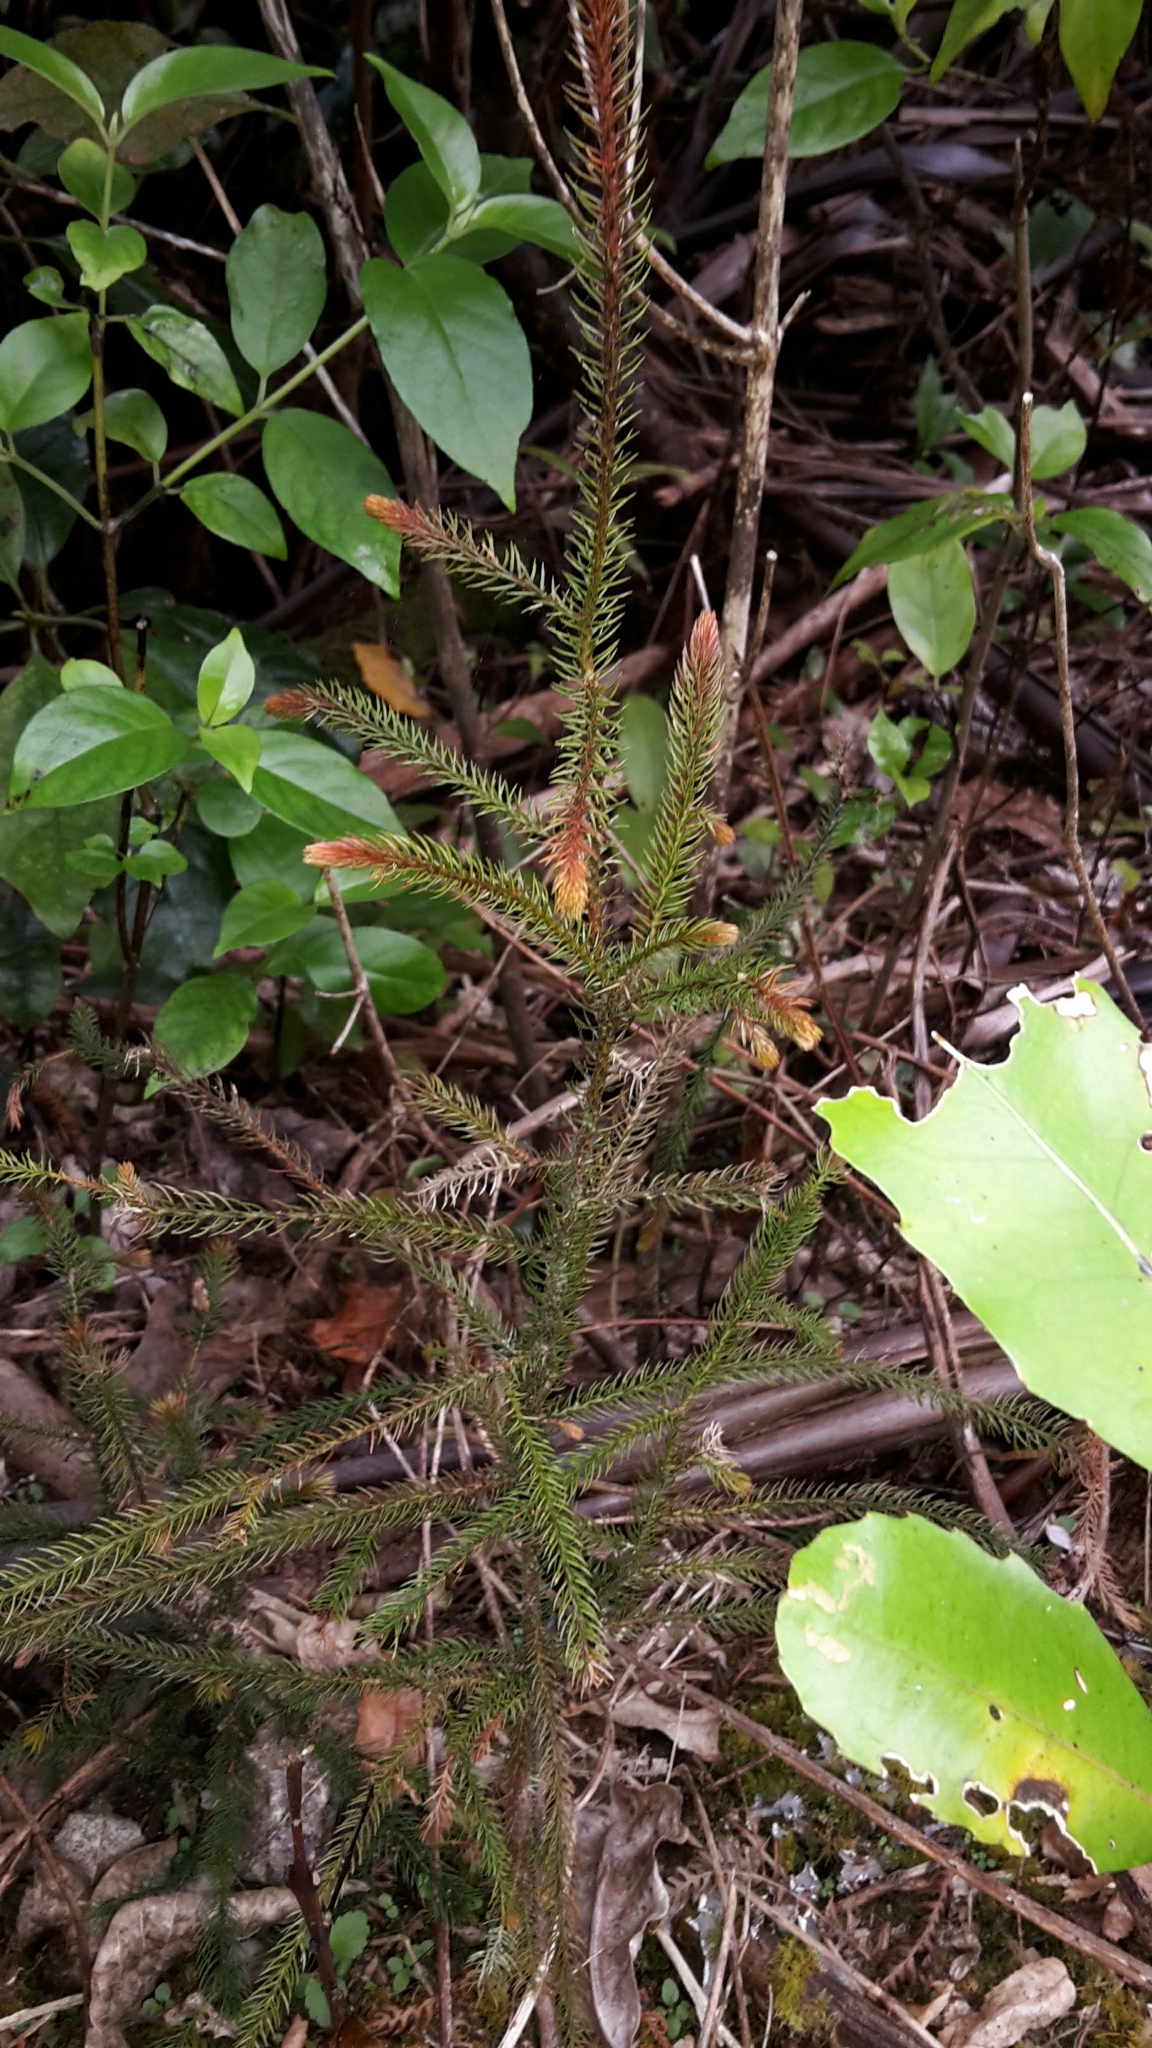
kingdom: Plantae
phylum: Tracheophyta
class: Pinopsida
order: Pinales
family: Podocarpaceae
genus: Dacrydium
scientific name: Dacrydium cupressinum
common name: Red pine
